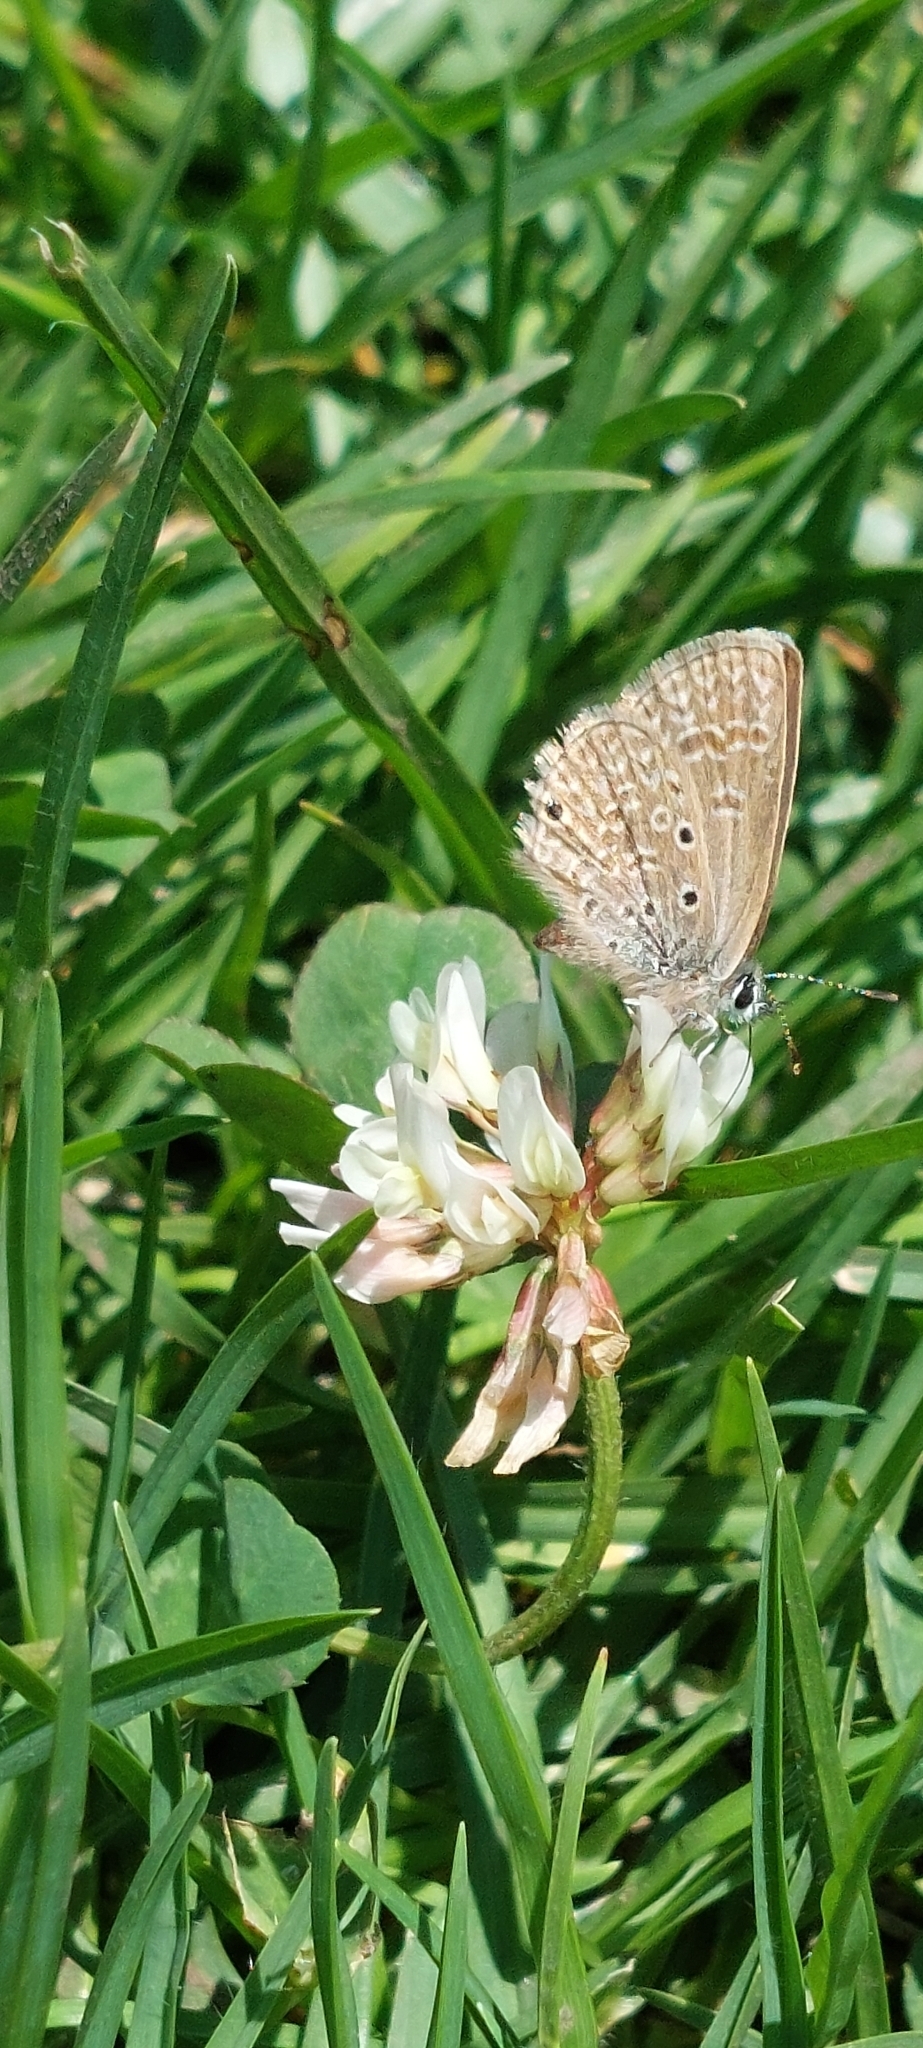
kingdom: Plantae
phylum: Tracheophyta
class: Magnoliopsida
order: Fabales
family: Fabaceae
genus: Trifolium
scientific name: Trifolium repens
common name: White clover
